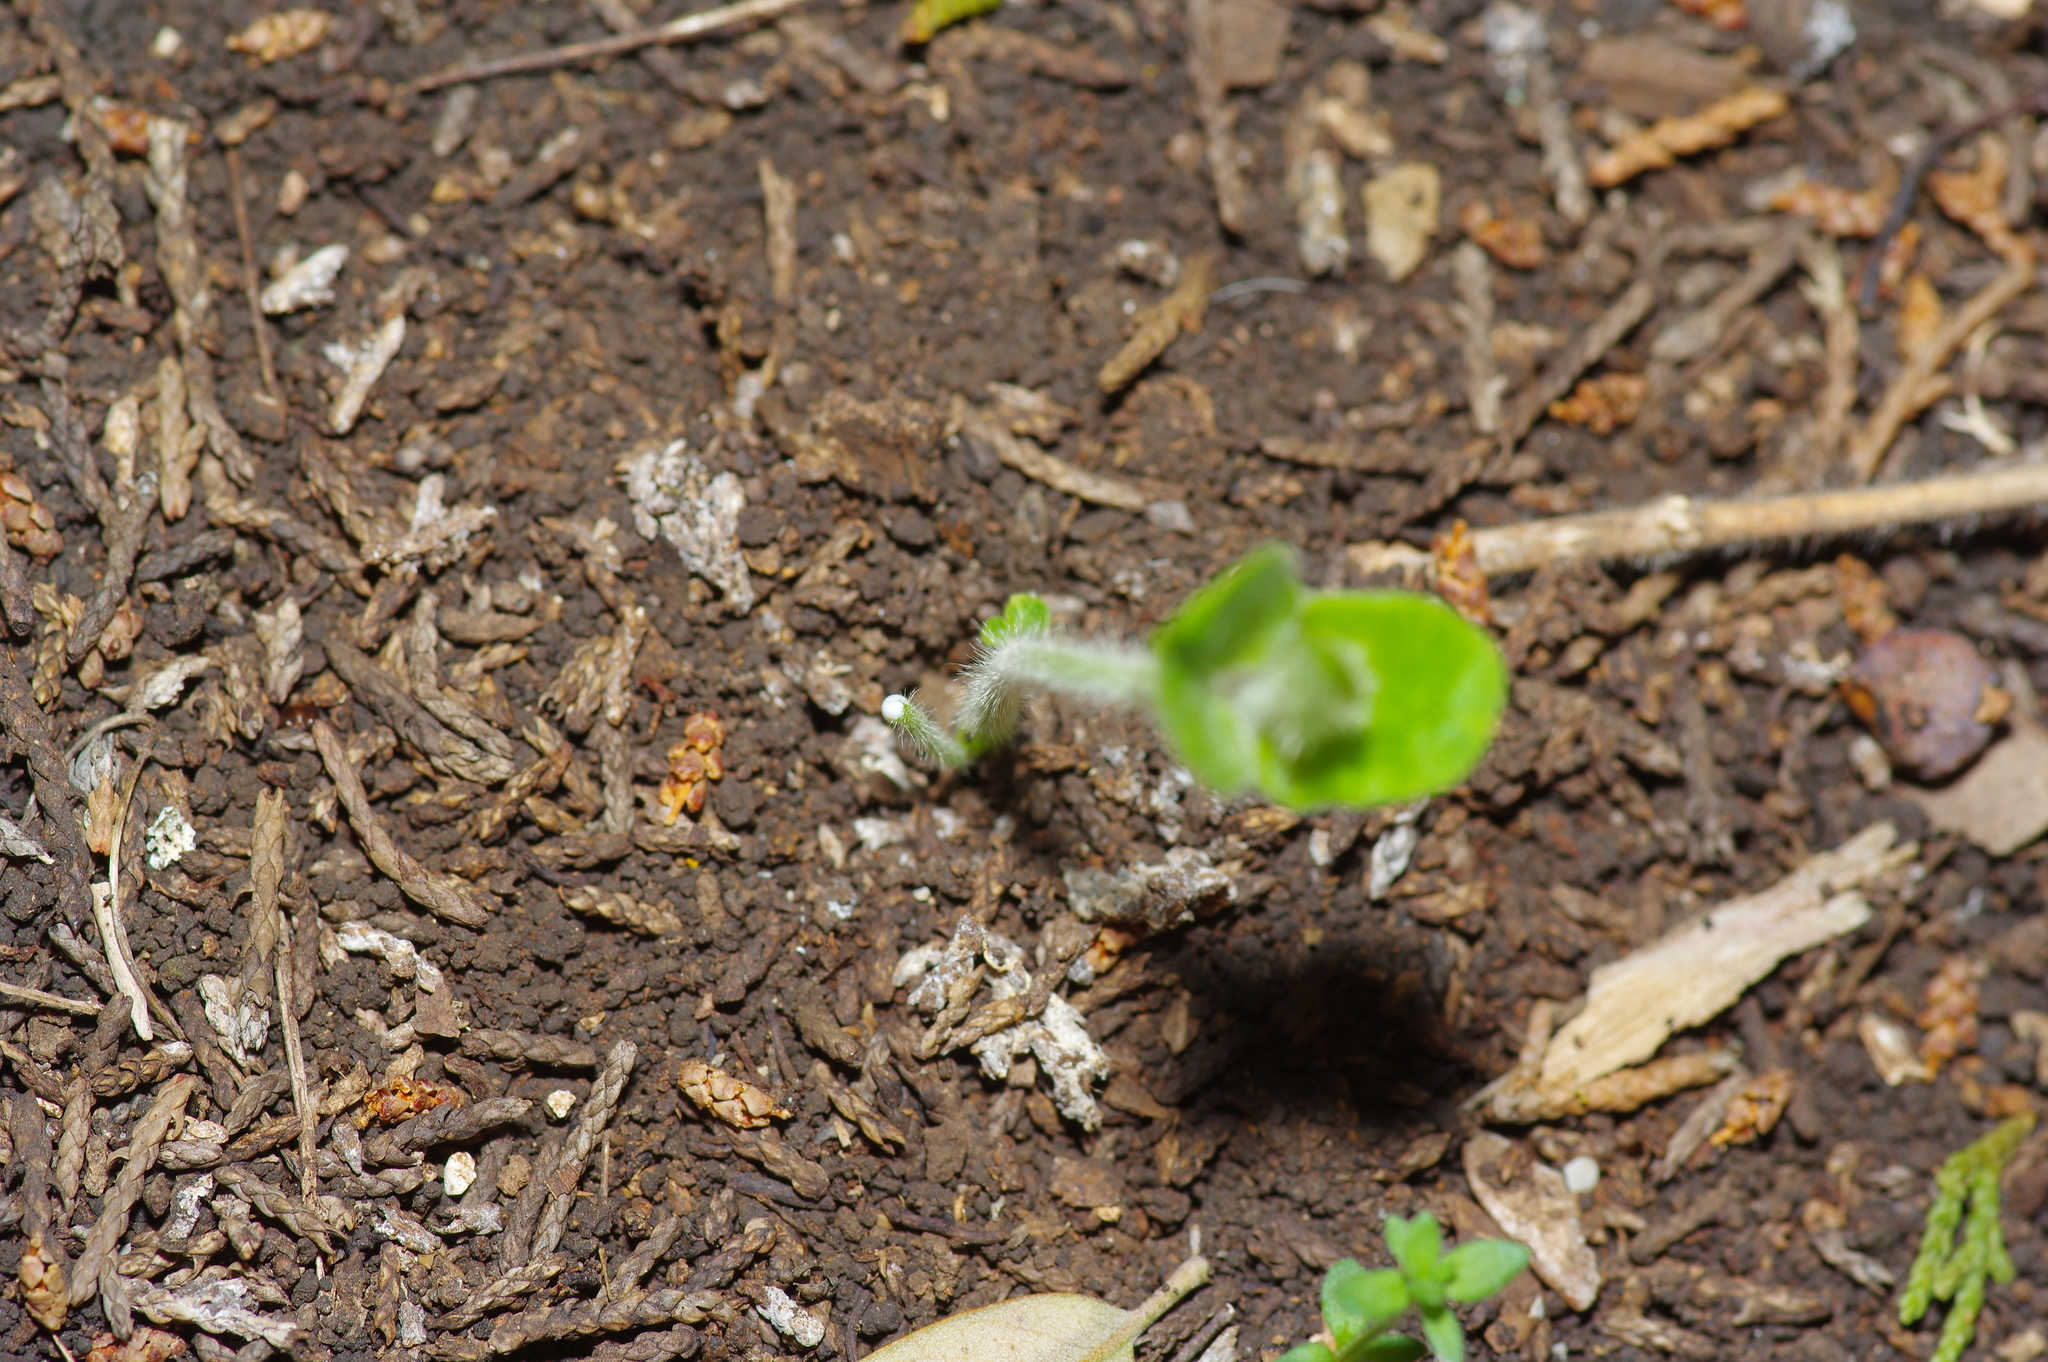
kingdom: Plantae
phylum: Tracheophyta
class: Magnoliopsida
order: Gentianales
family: Apocynaceae
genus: Dictyanthus
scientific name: Dictyanthus reticulatus
